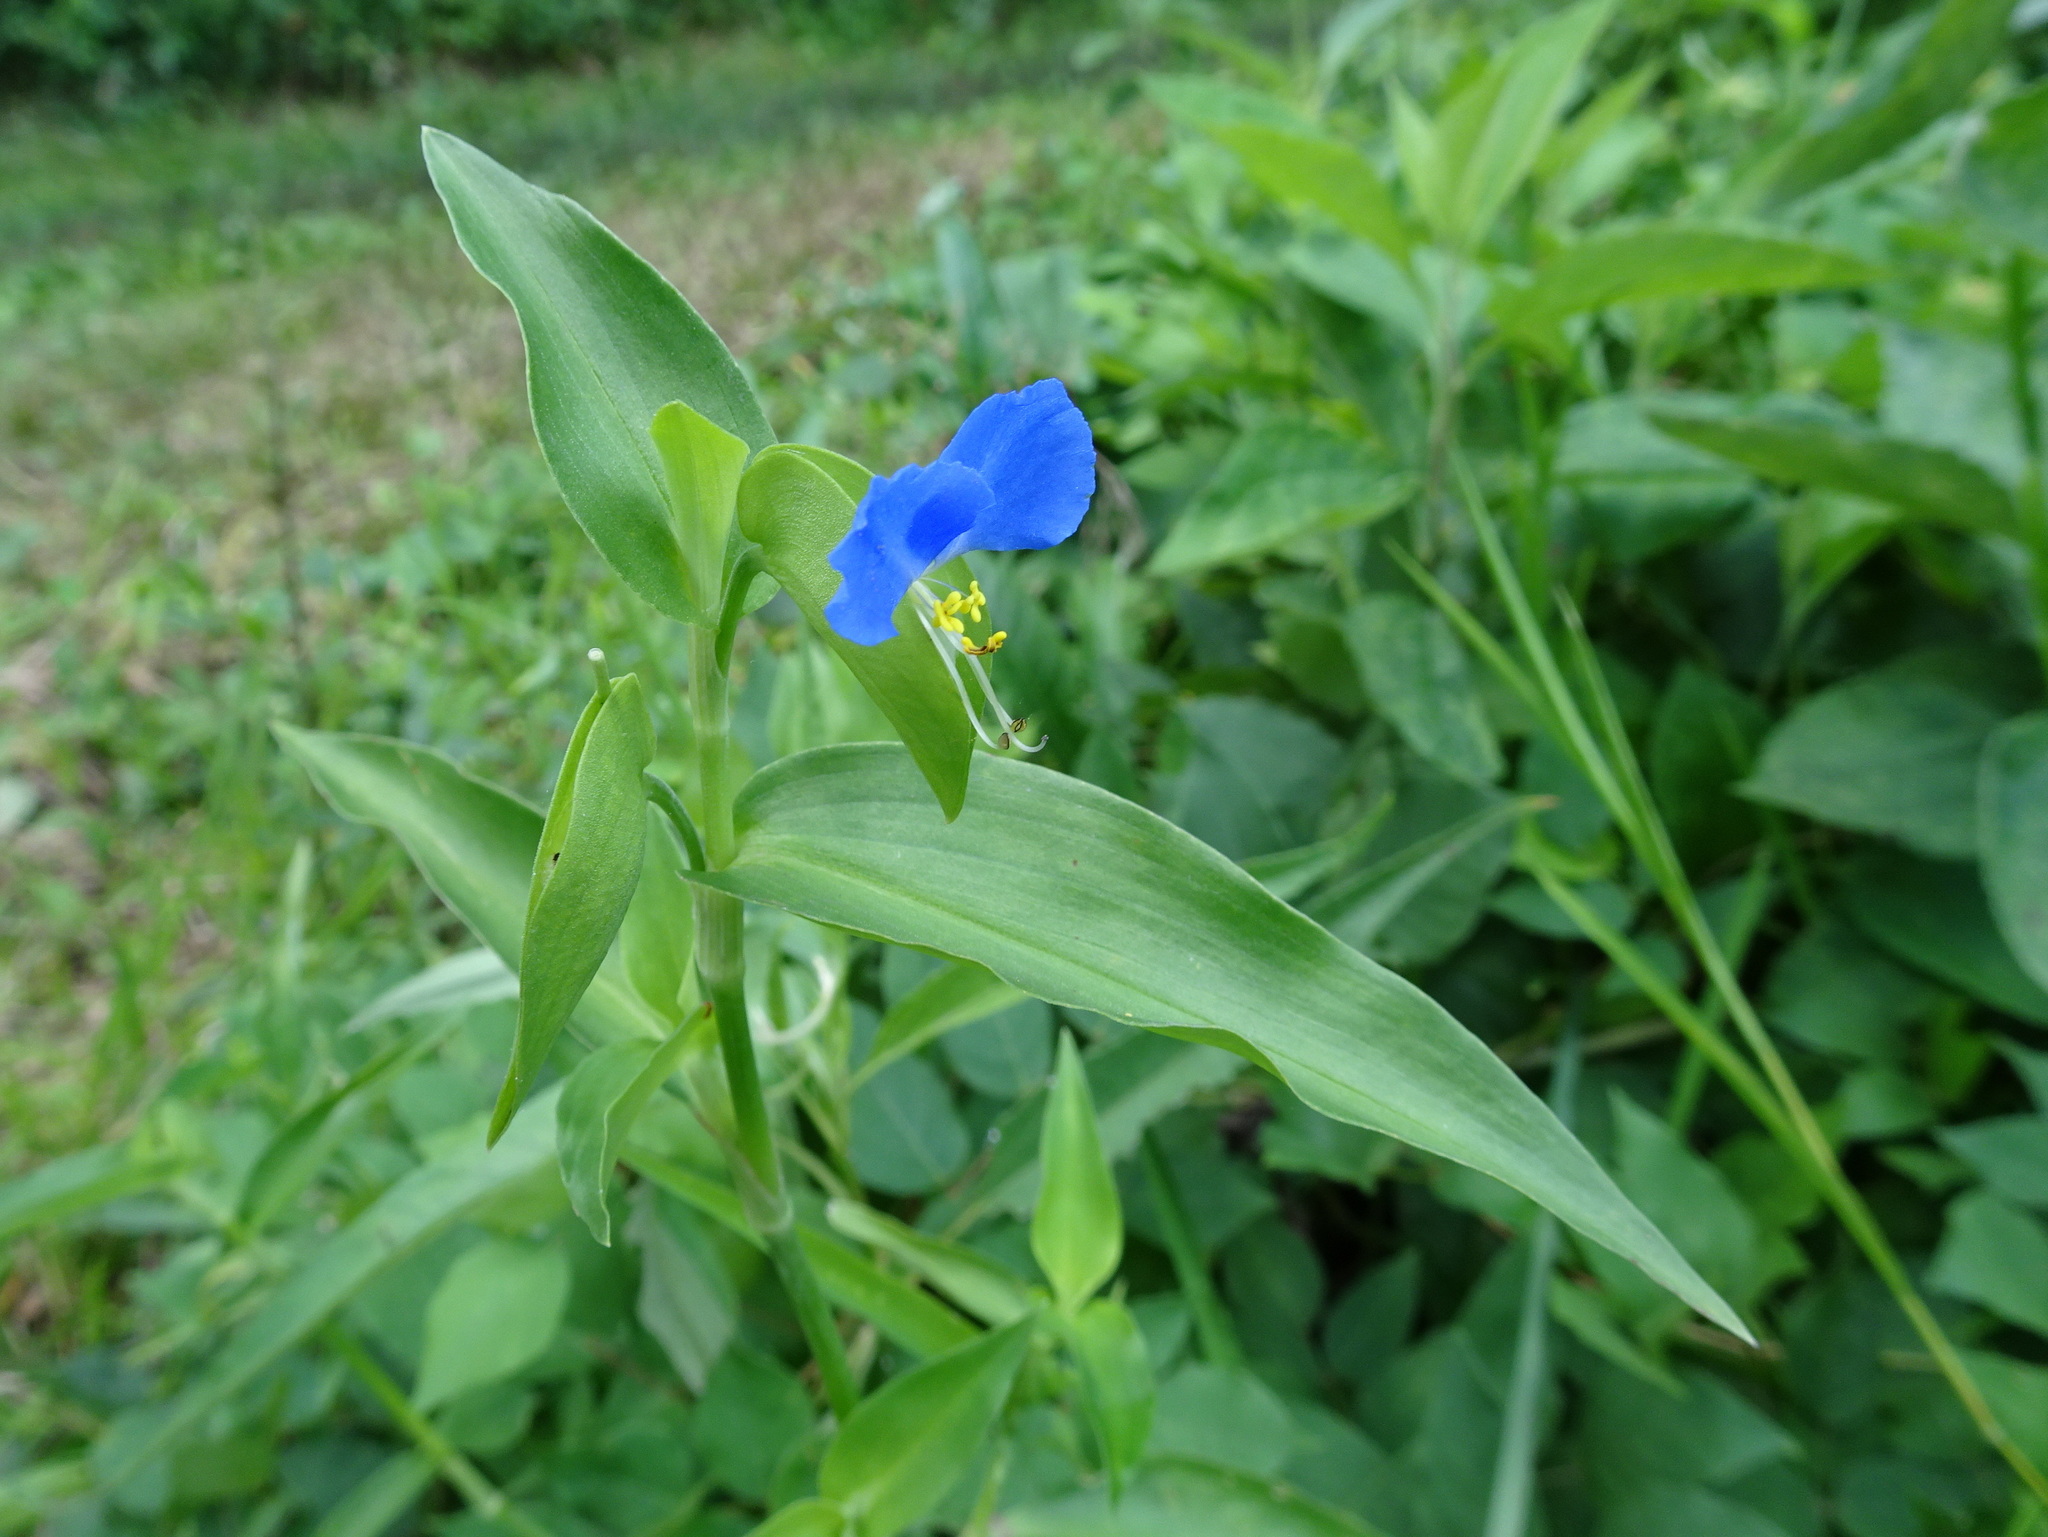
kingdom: Plantae
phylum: Tracheophyta
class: Liliopsida
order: Commelinales
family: Commelinaceae
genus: Commelina
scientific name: Commelina communis
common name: Asiatic dayflower
